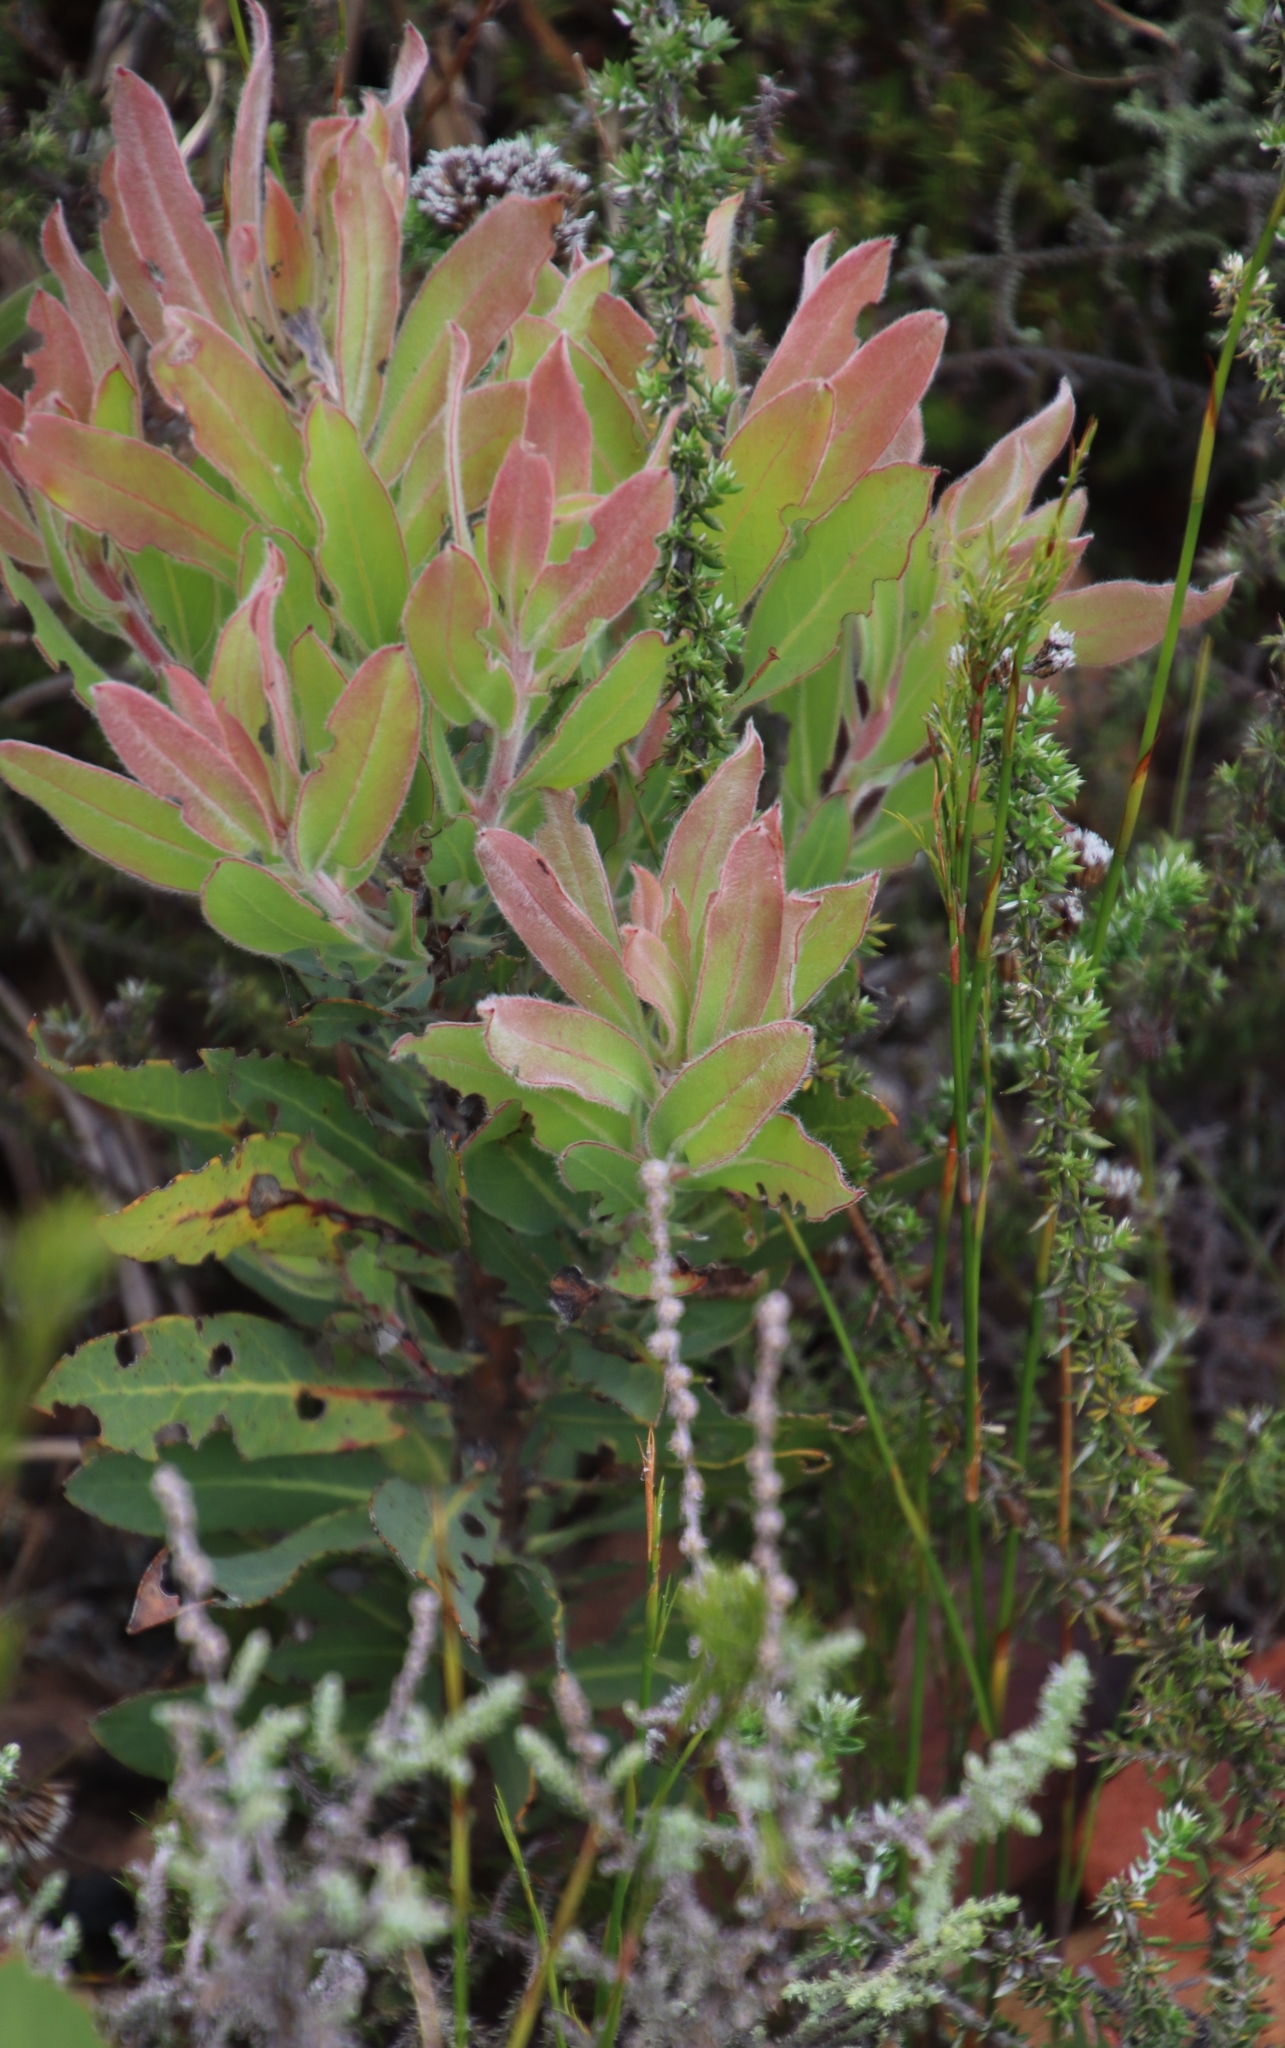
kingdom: Plantae
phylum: Tracheophyta
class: Magnoliopsida
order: Proteales
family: Proteaceae
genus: Protea
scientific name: Protea laurifolia
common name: Grey-leaf sugarbsh
